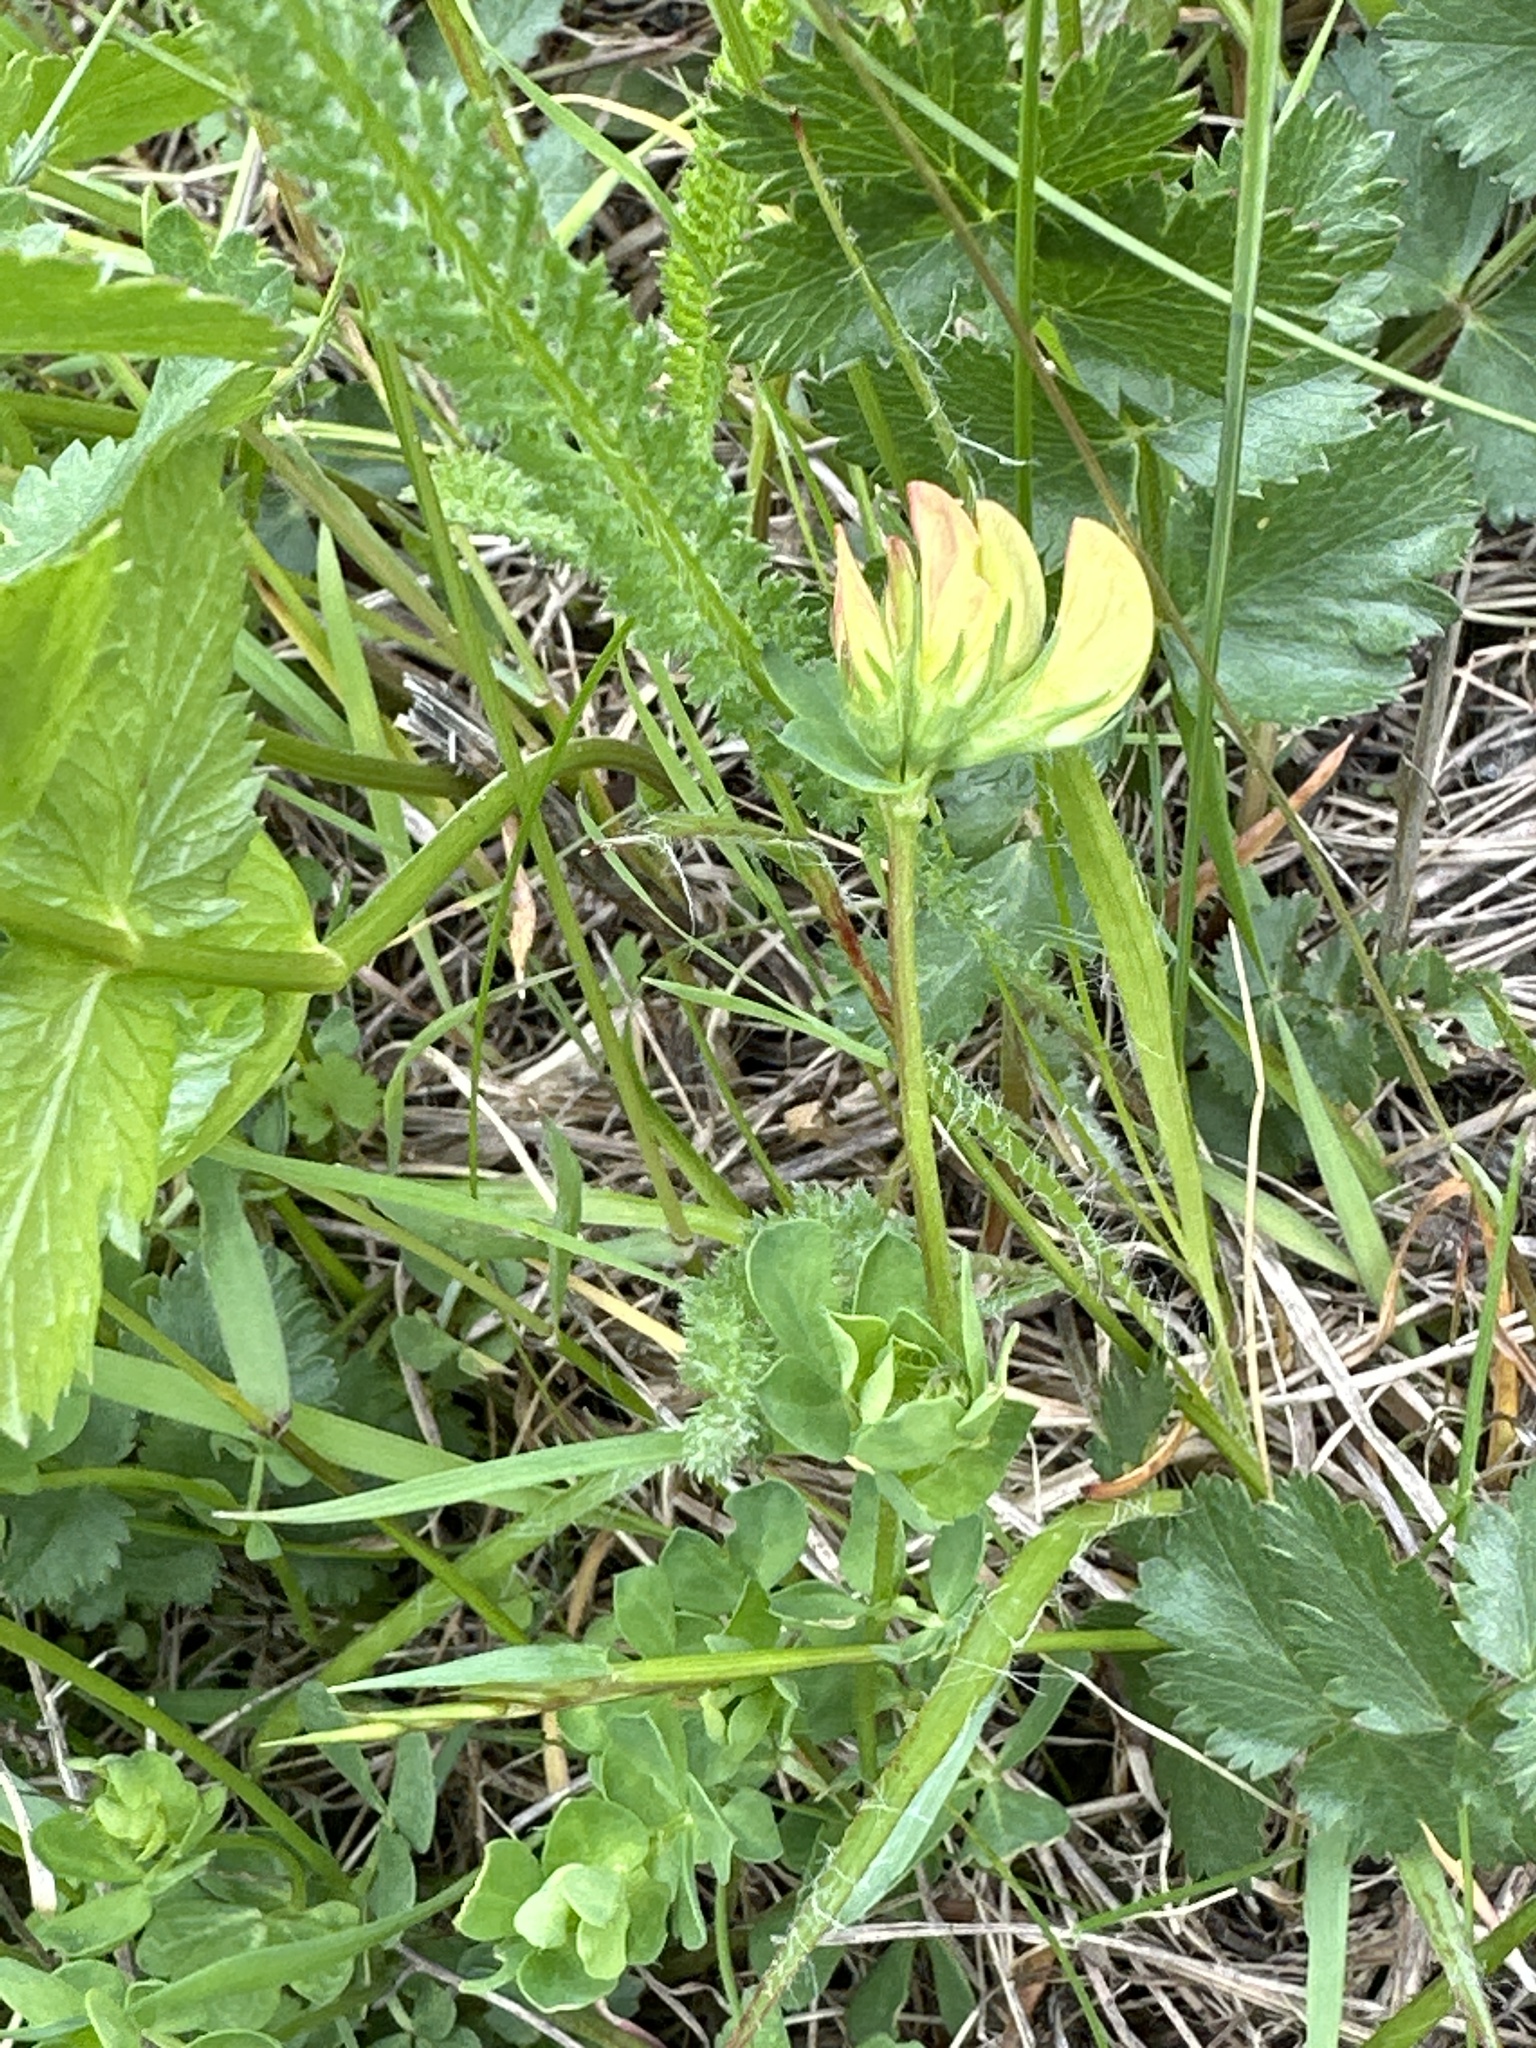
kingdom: Plantae
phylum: Tracheophyta
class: Magnoliopsida
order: Fabales
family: Fabaceae
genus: Lotus
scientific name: Lotus corniculatus
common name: Common bird's-foot-trefoil
